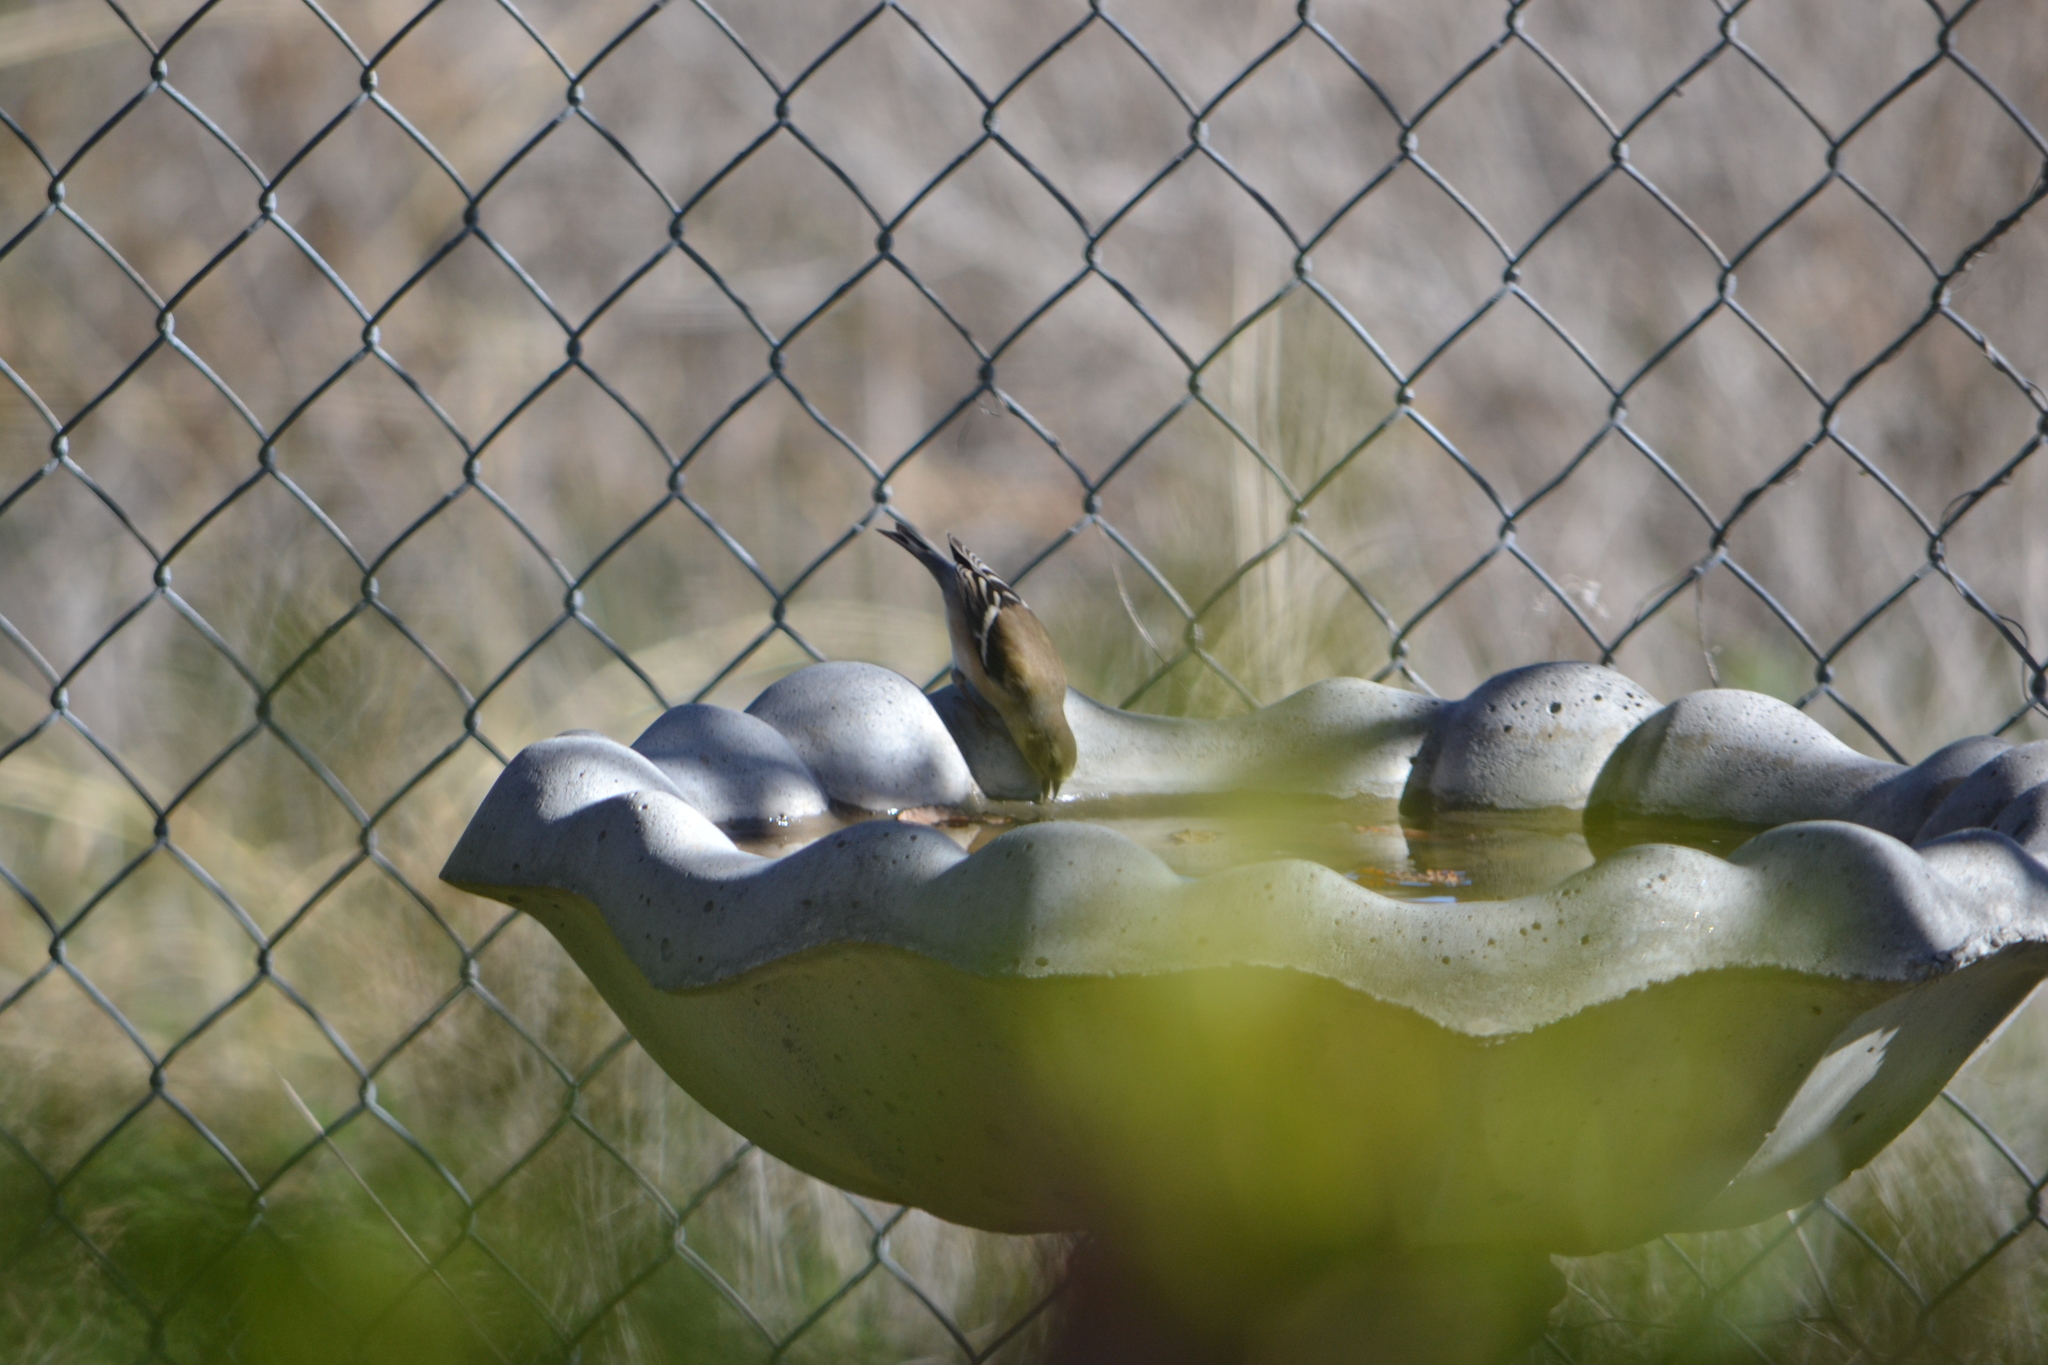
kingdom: Animalia
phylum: Chordata
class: Aves
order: Passeriformes
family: Fringillidae
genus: Spinus
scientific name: Spinus tristis
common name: American goldfinch
